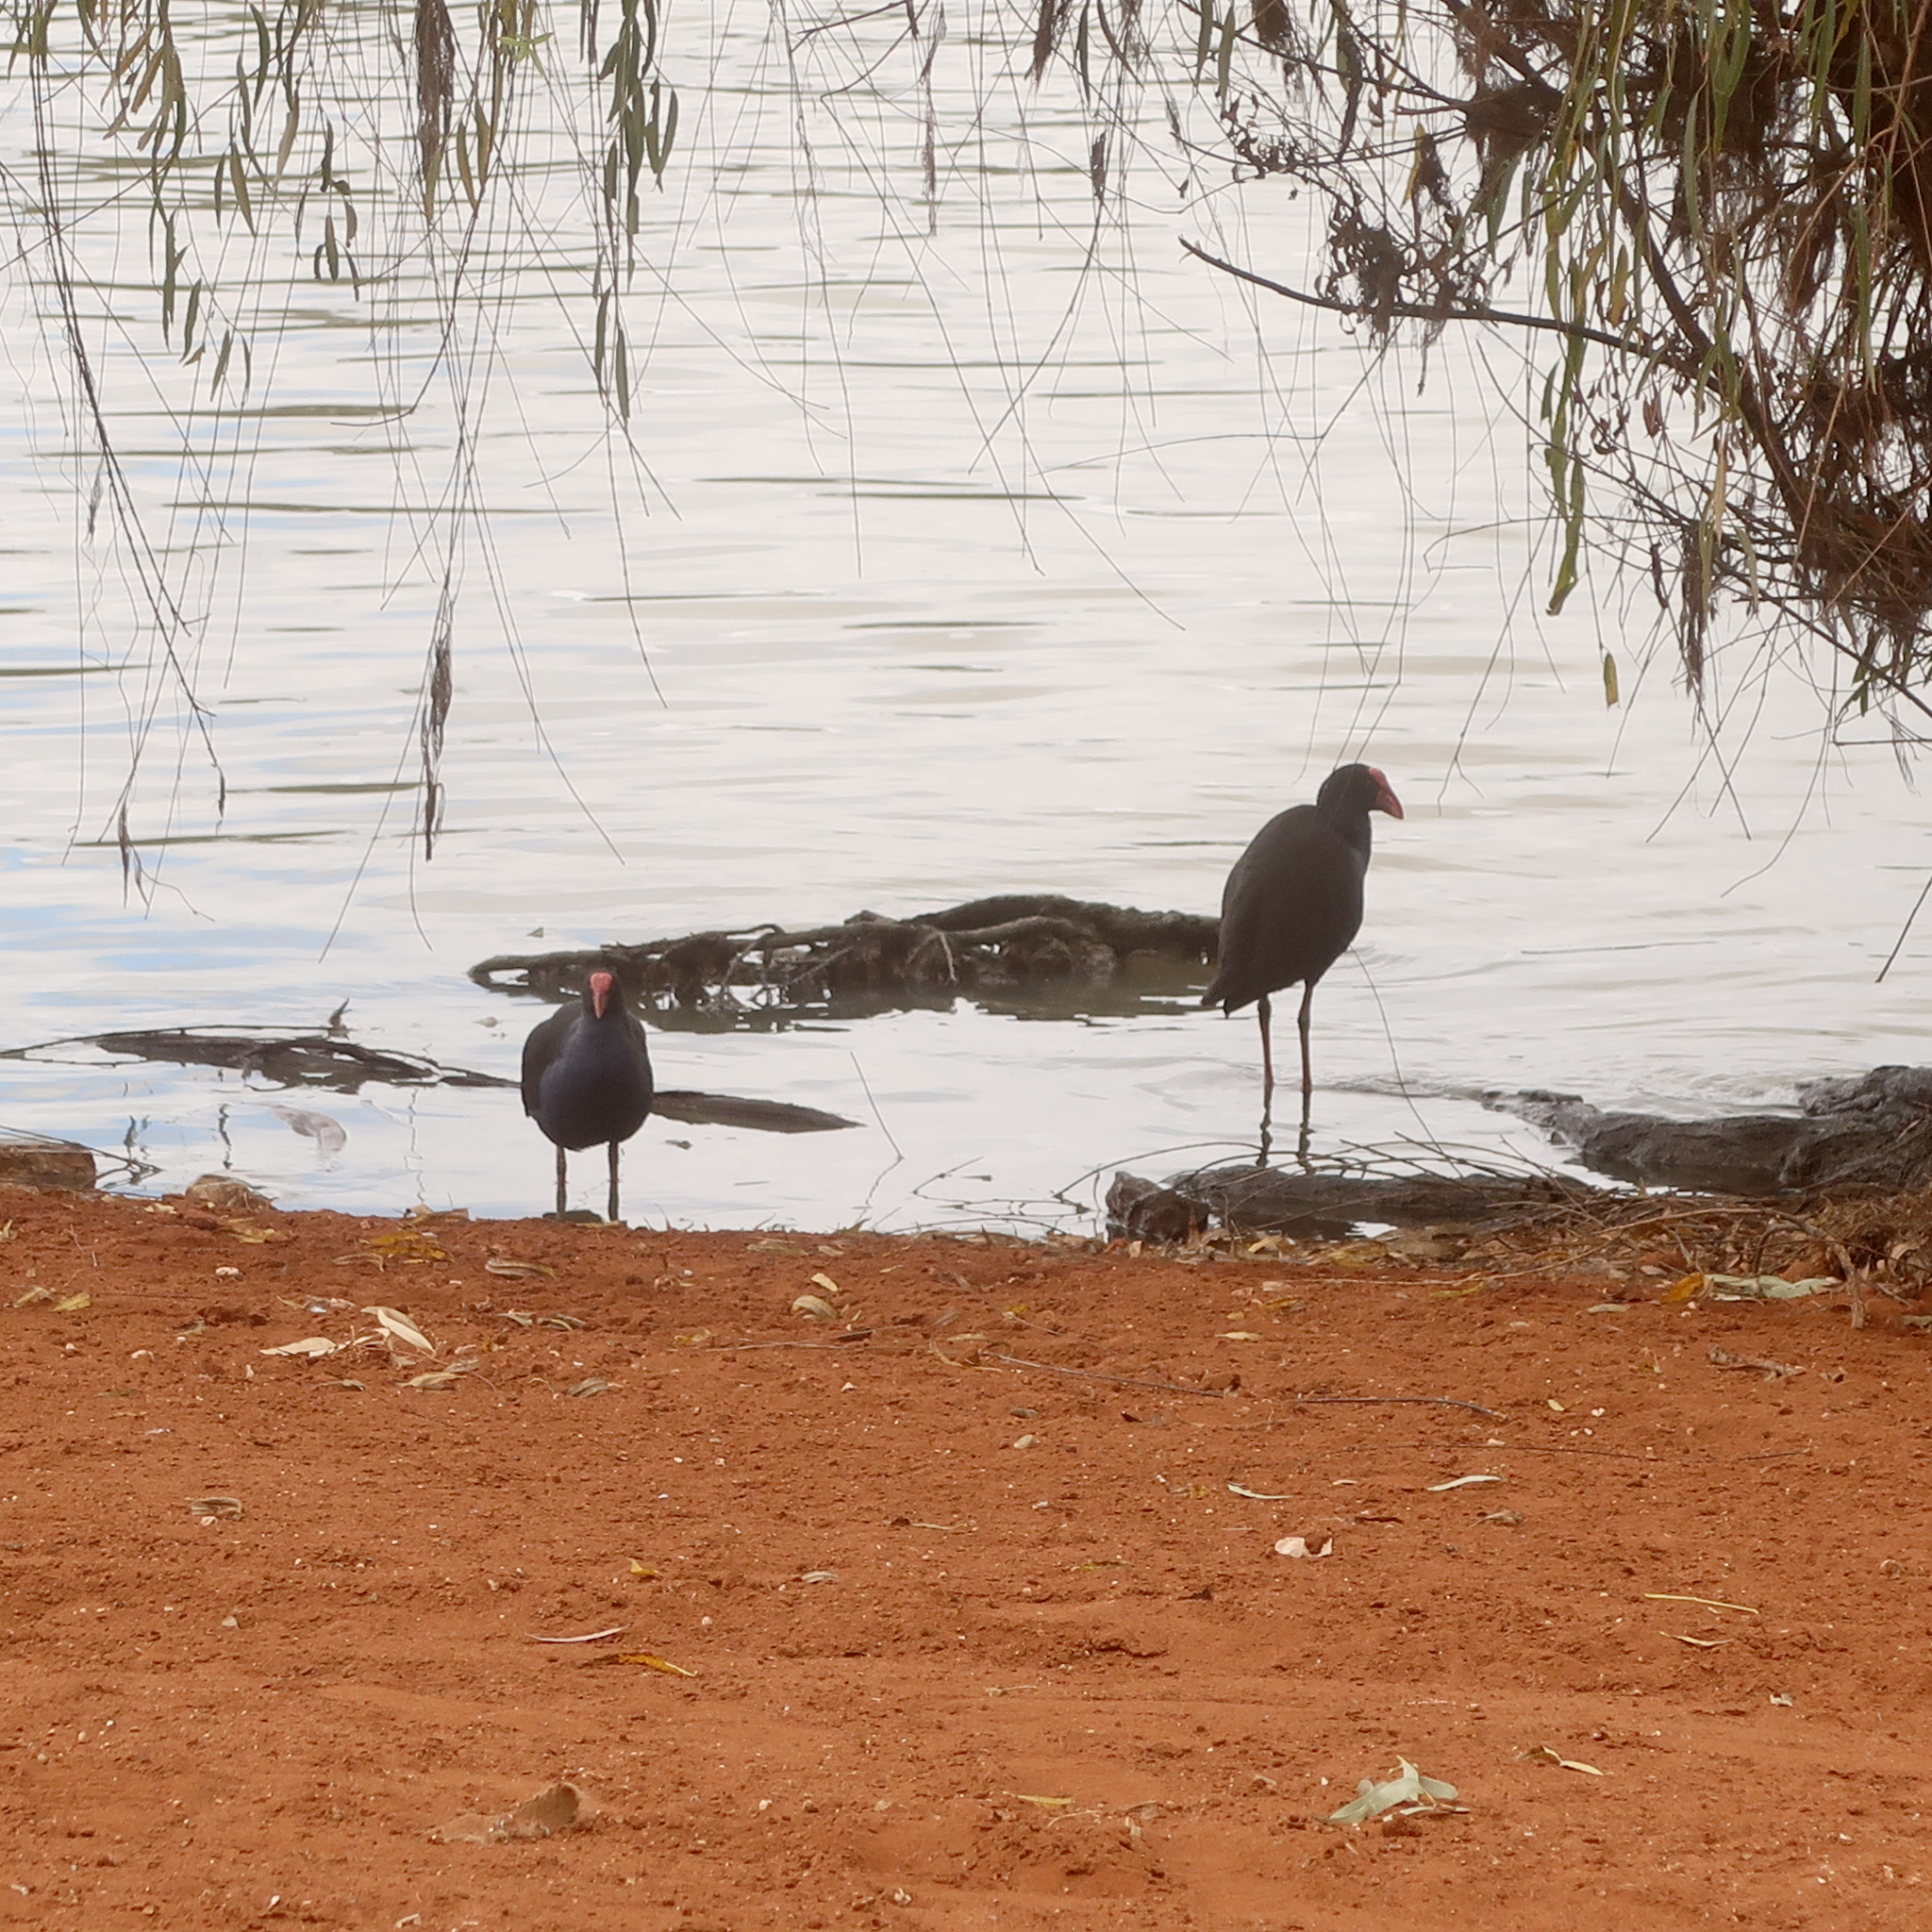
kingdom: Animalia
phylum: Chordata
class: Aves
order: Gruiformes
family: Rallidae
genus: Porphyrio
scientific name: Porphyrio melanotus
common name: Australasian swamphen
